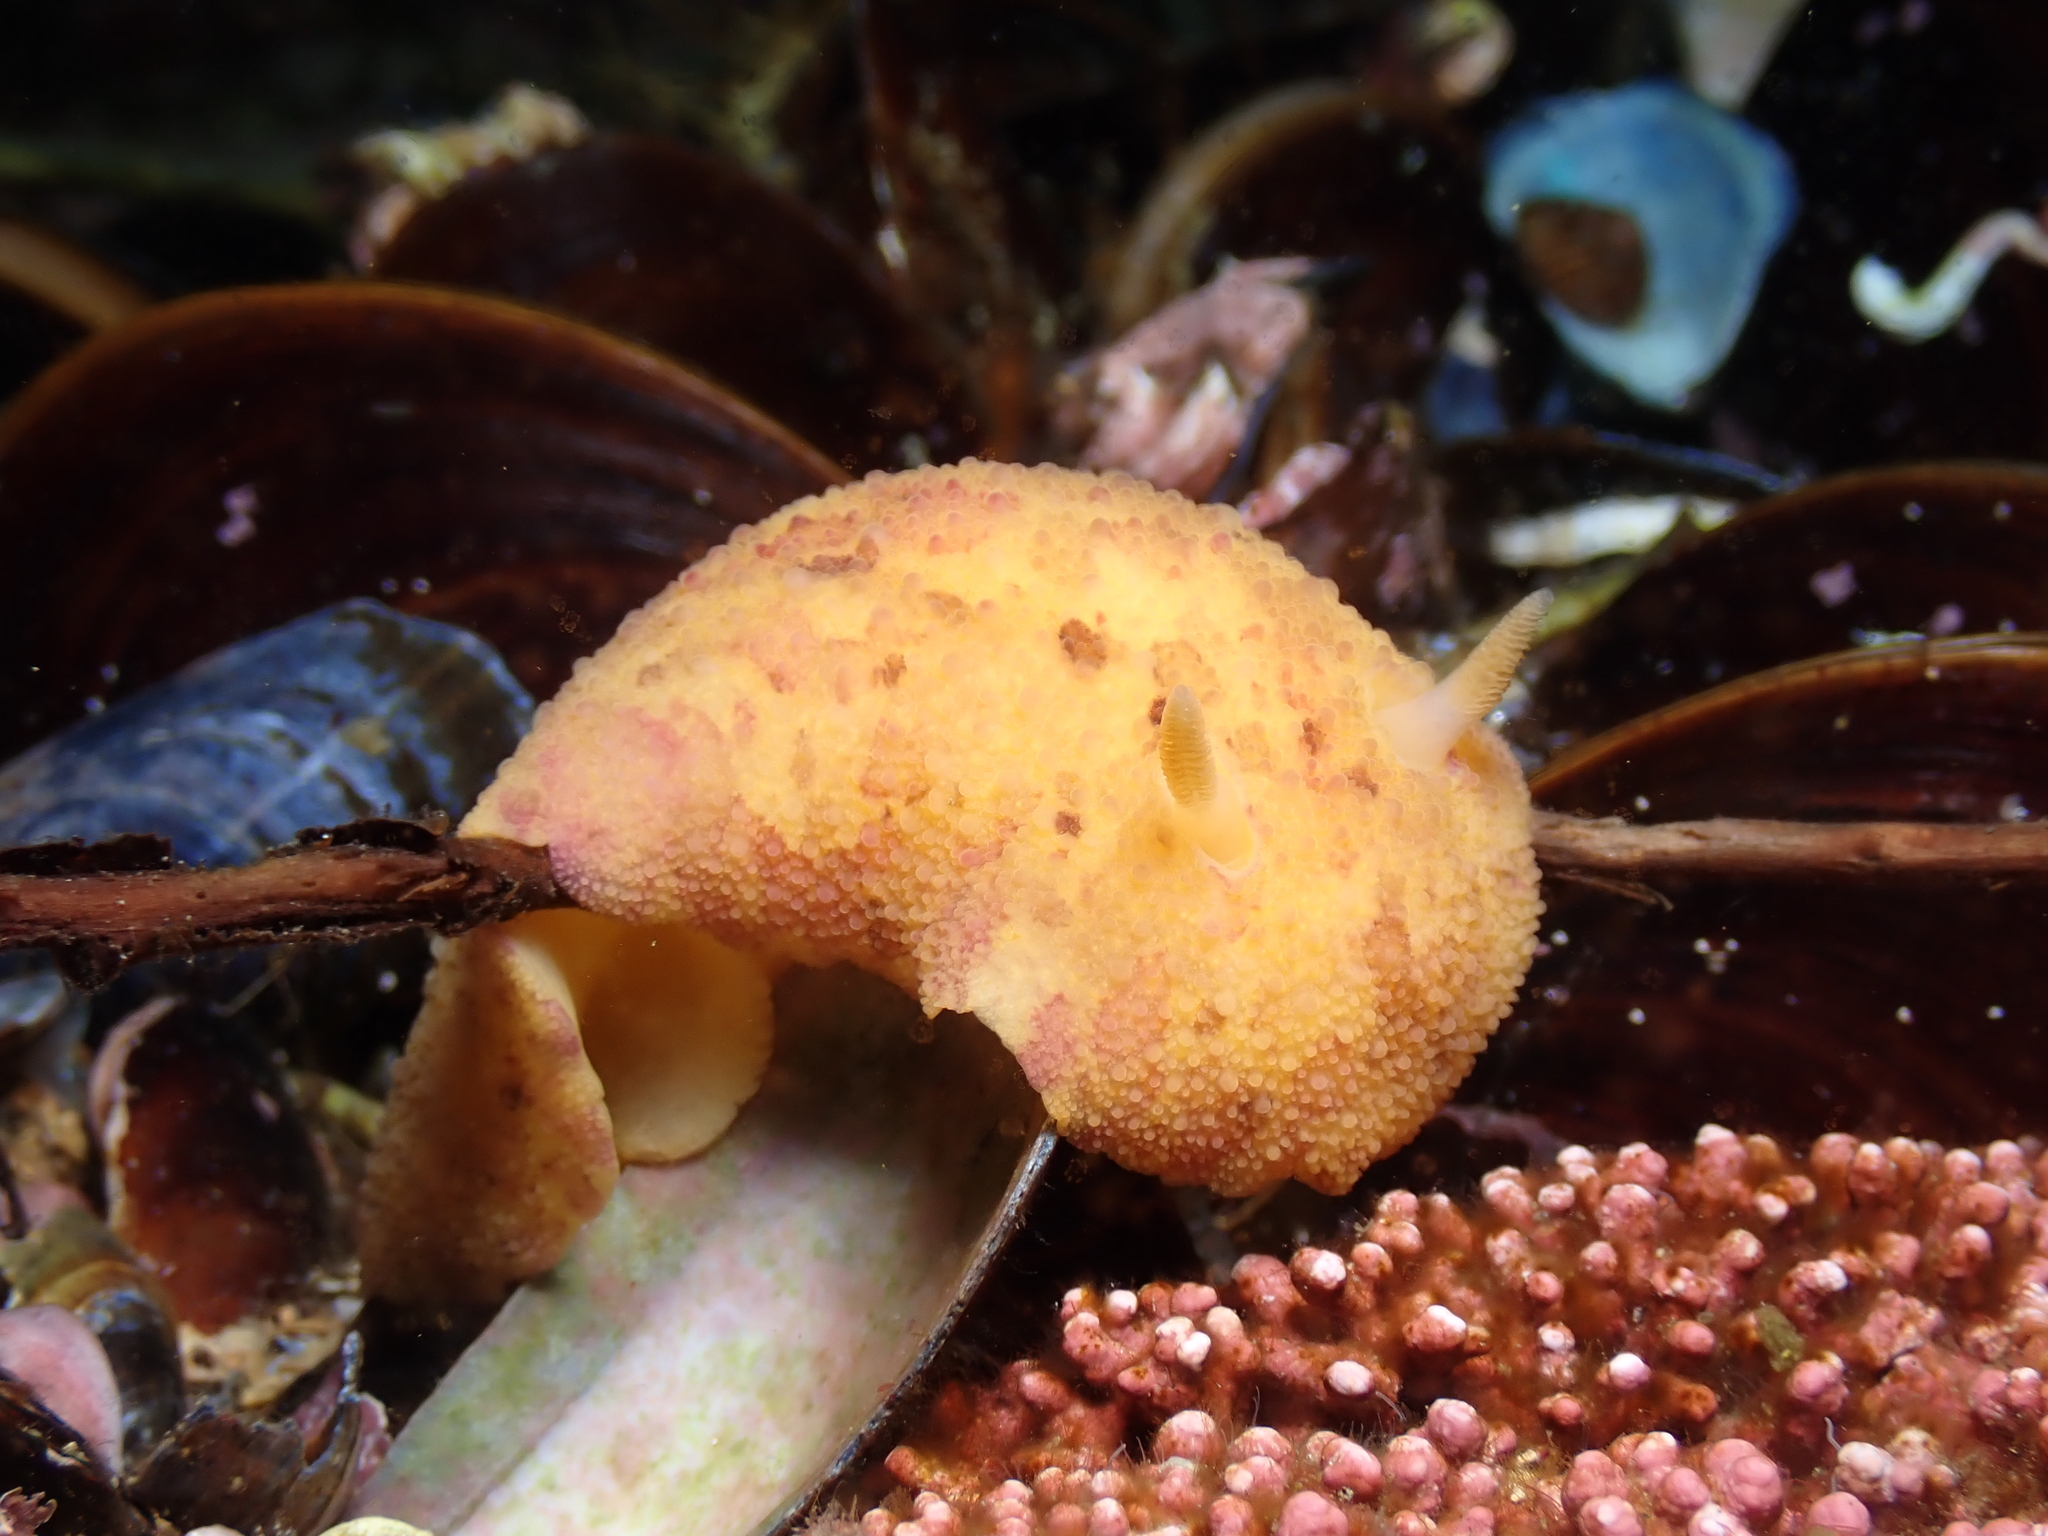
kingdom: Animalia
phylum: Mollusca
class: Gastropoda
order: Nudibranchia
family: Dorididae
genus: Doris
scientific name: Doris pseudoargus
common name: Sea lemon
